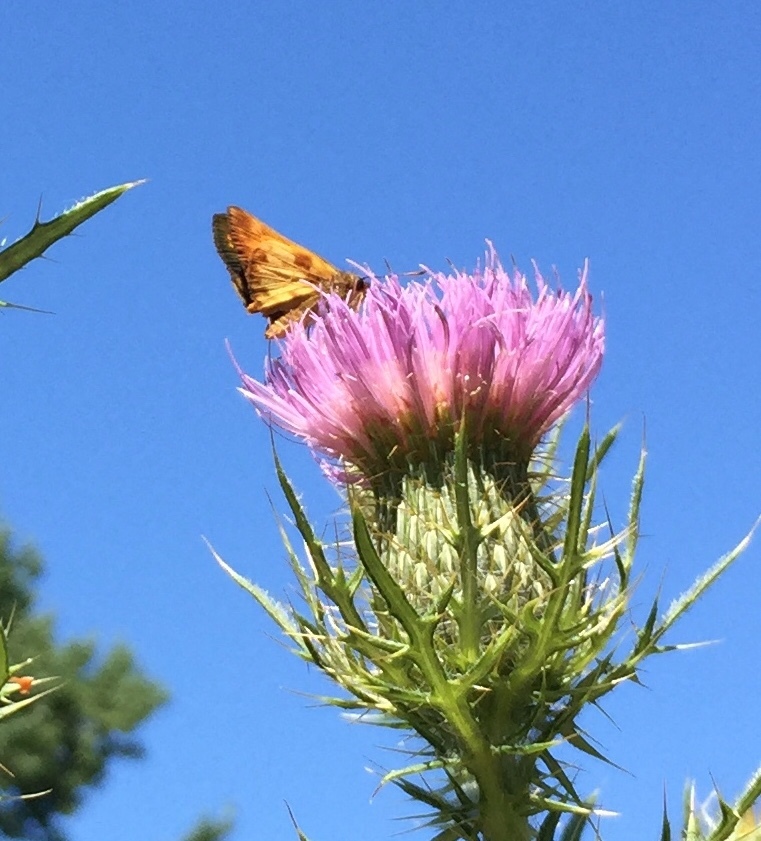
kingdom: Animalia
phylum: Arthropoda
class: Insecta
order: Lepidoptera
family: Hesperiidae
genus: Lon
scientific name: Lon zabulon
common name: Zabulon skipper
